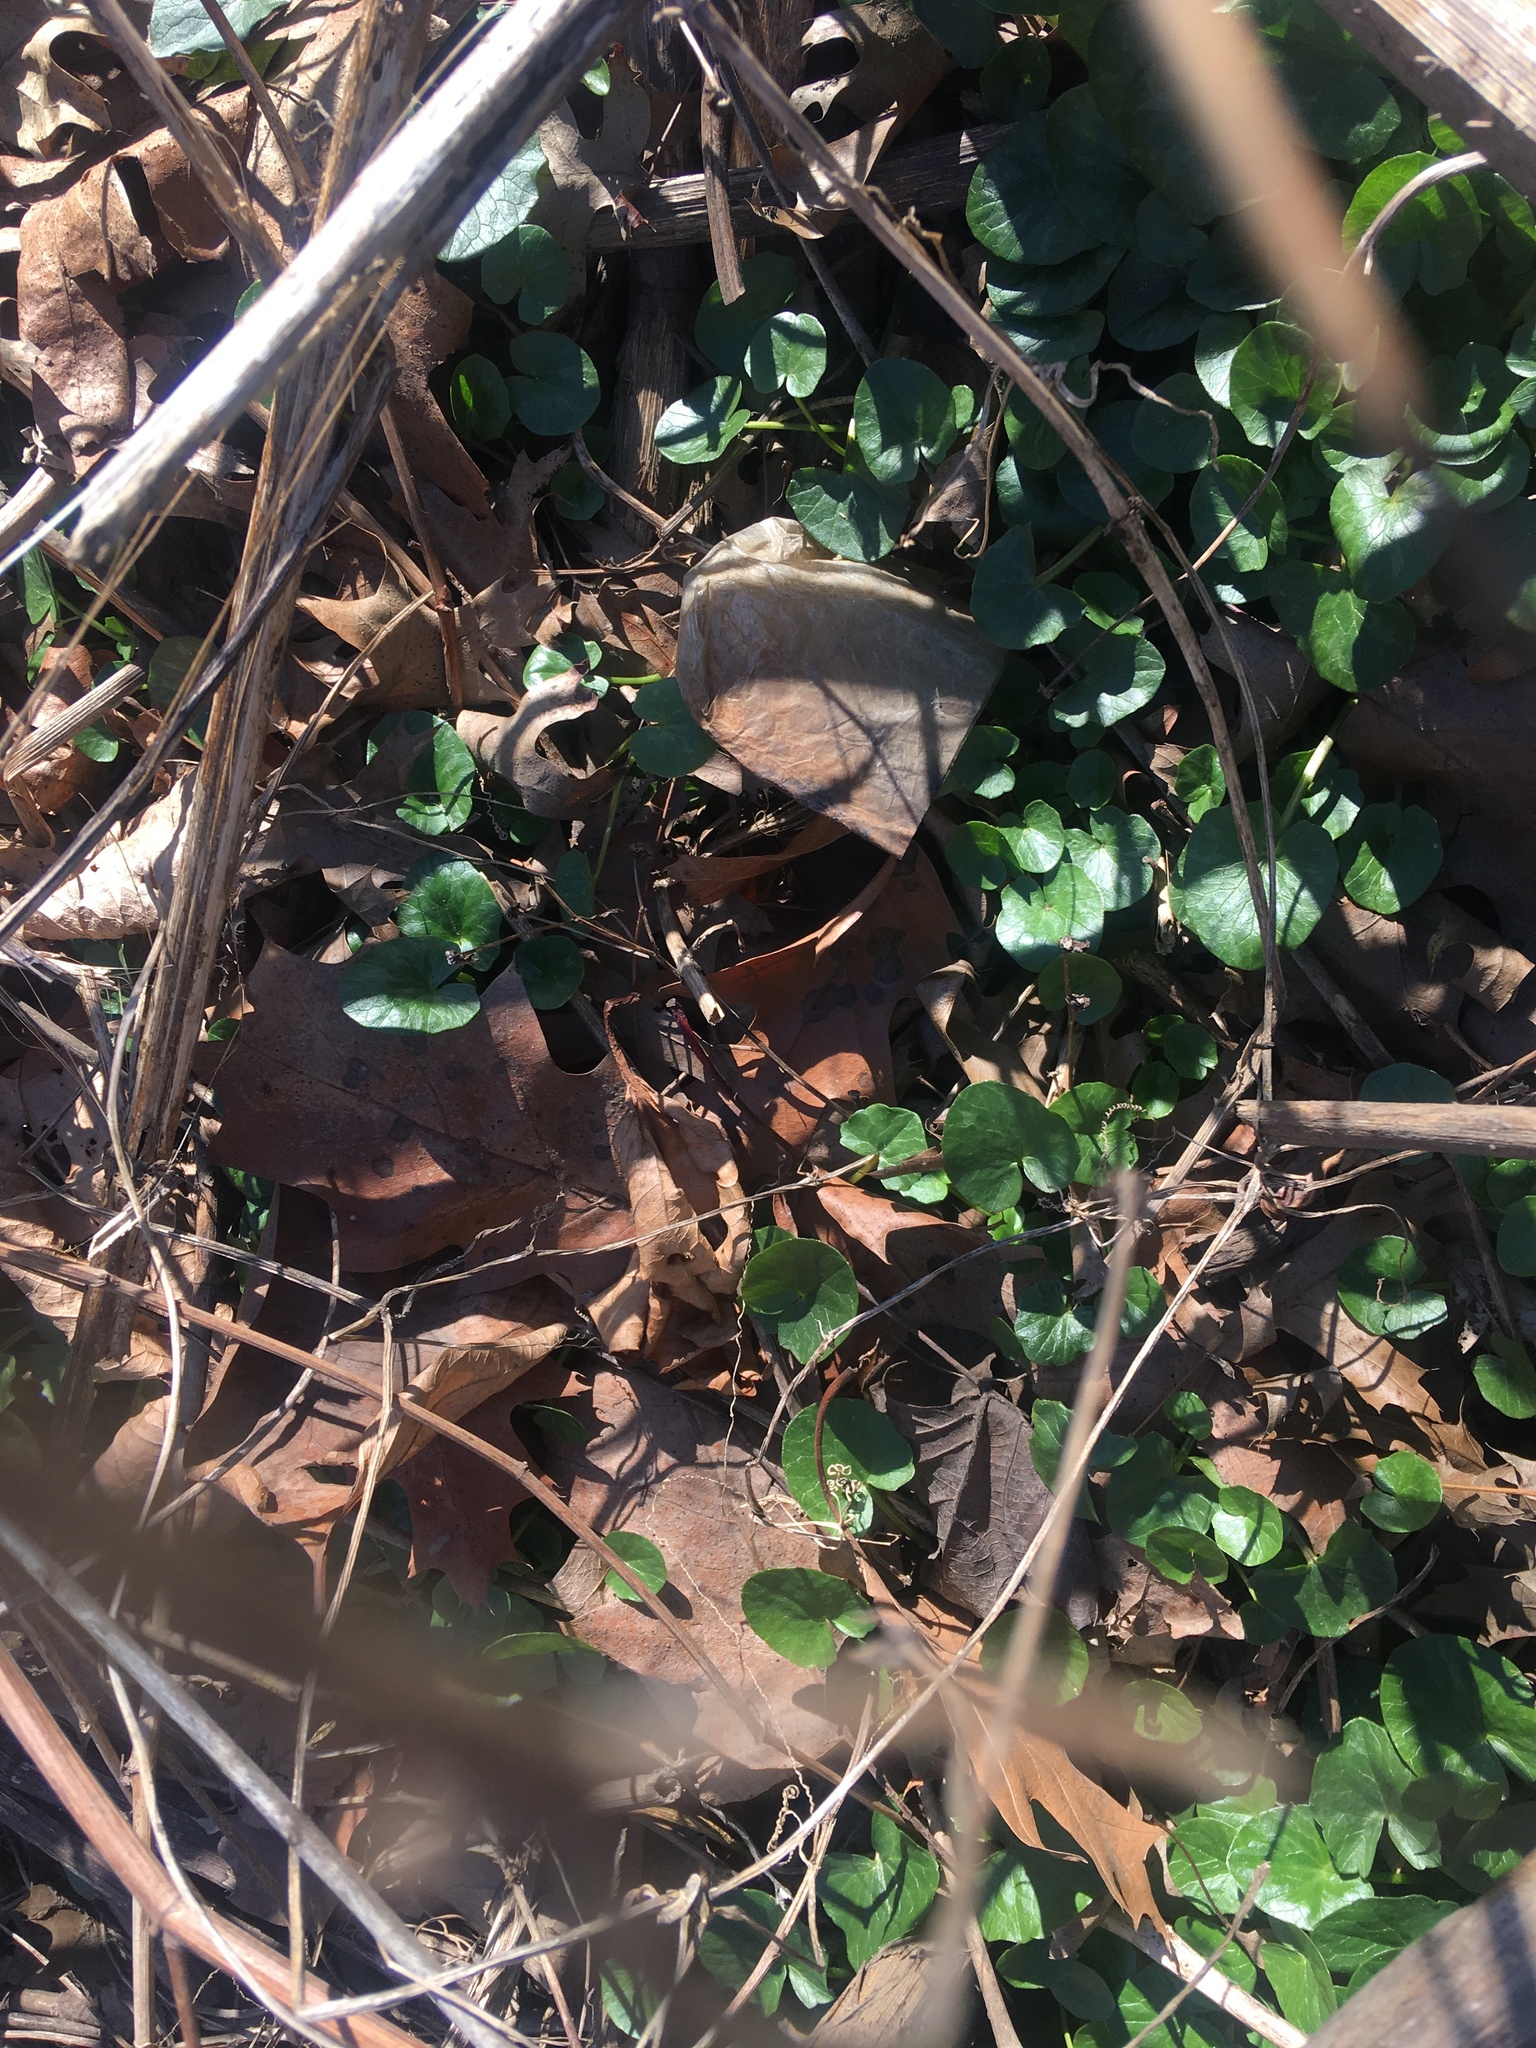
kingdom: Plantae
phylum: Tracheophyta
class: Magnoliopsida
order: Ranunculales
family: Ranunculaceae
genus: Ficaria
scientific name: Ficaria verna
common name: Lesser celandine
